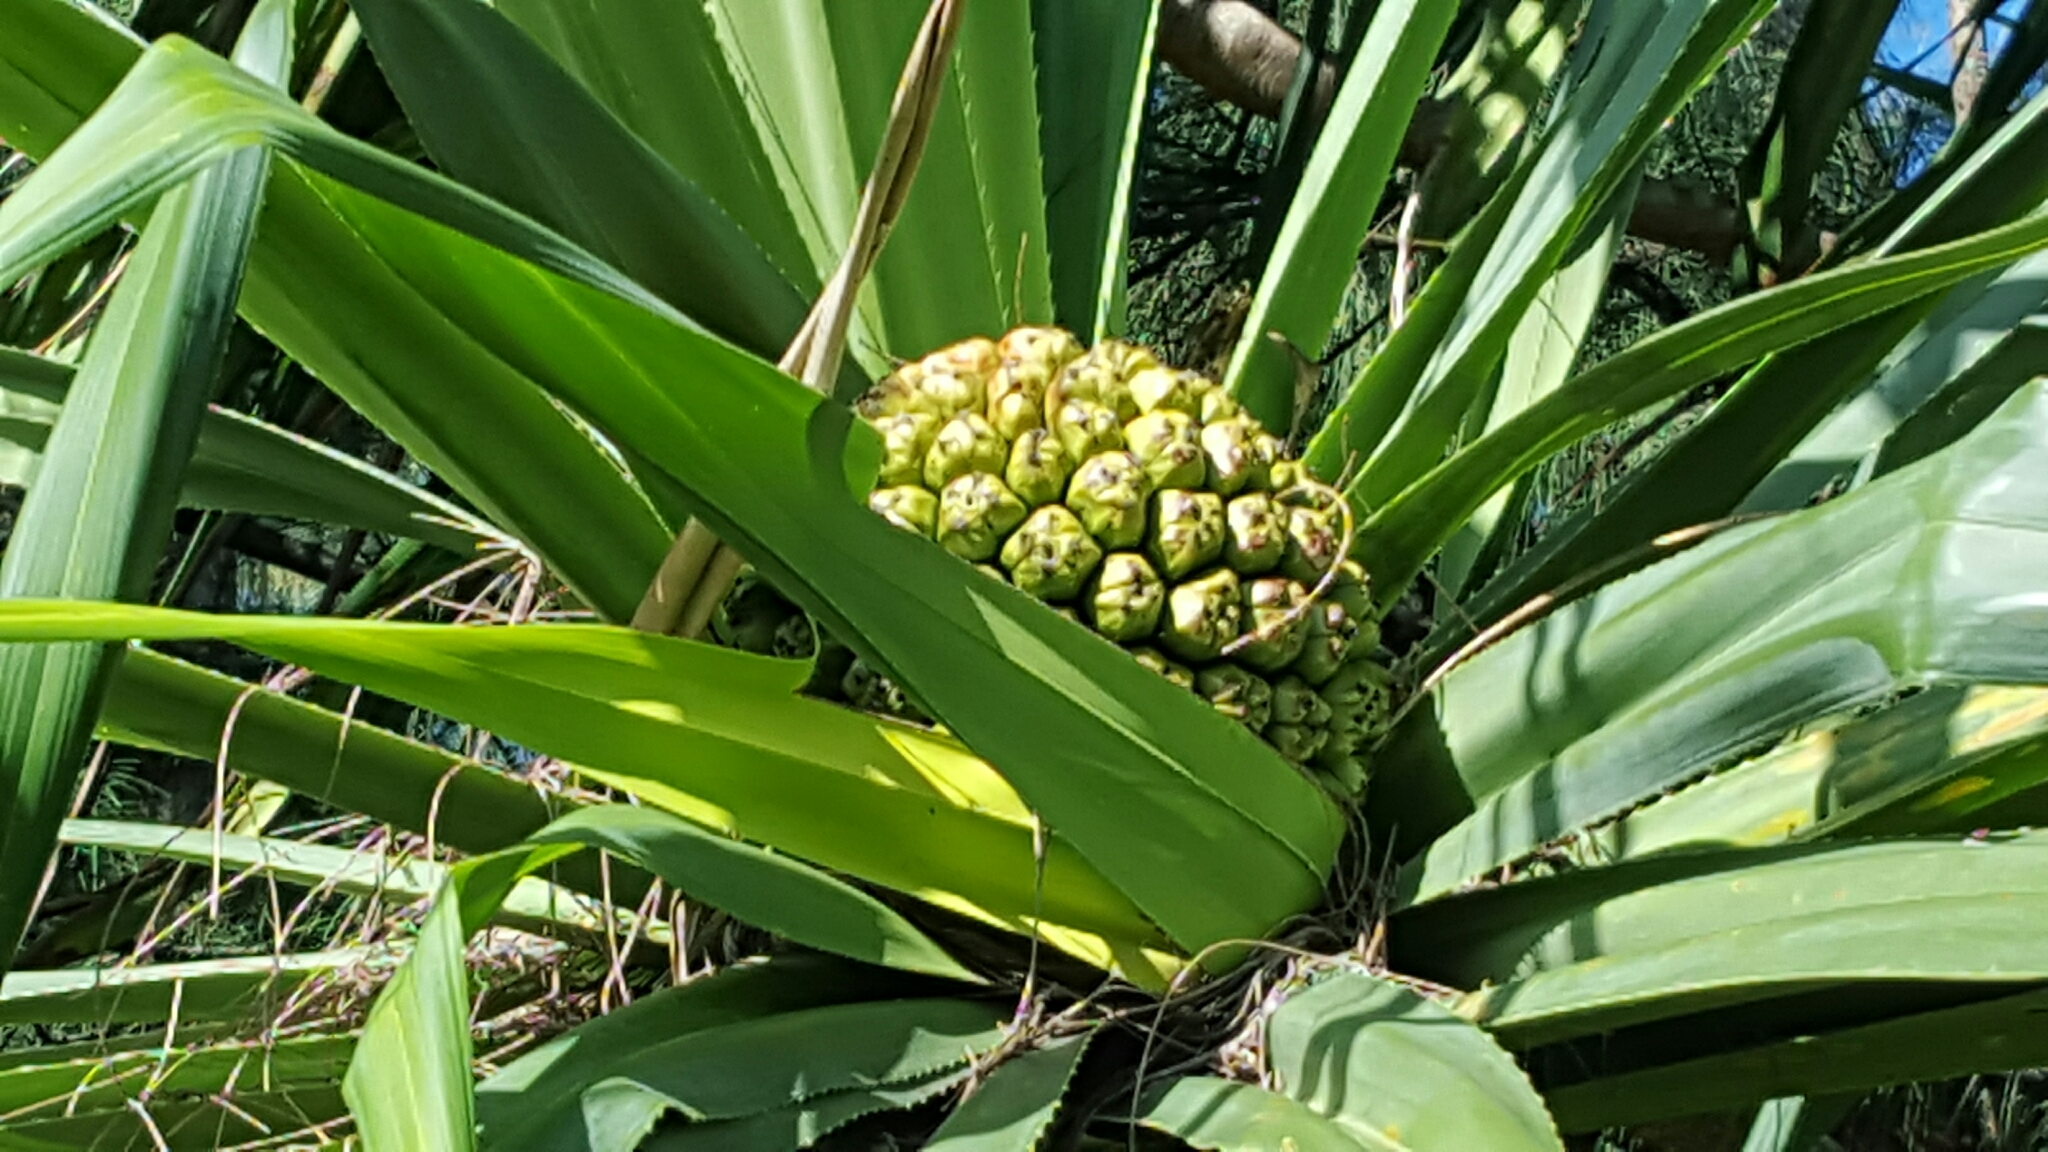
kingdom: Plantae
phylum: Tracheophyta
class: Liliopsida
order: Pandanales
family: Pandanaceae
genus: Pandanus
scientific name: Pandanus tectorius
